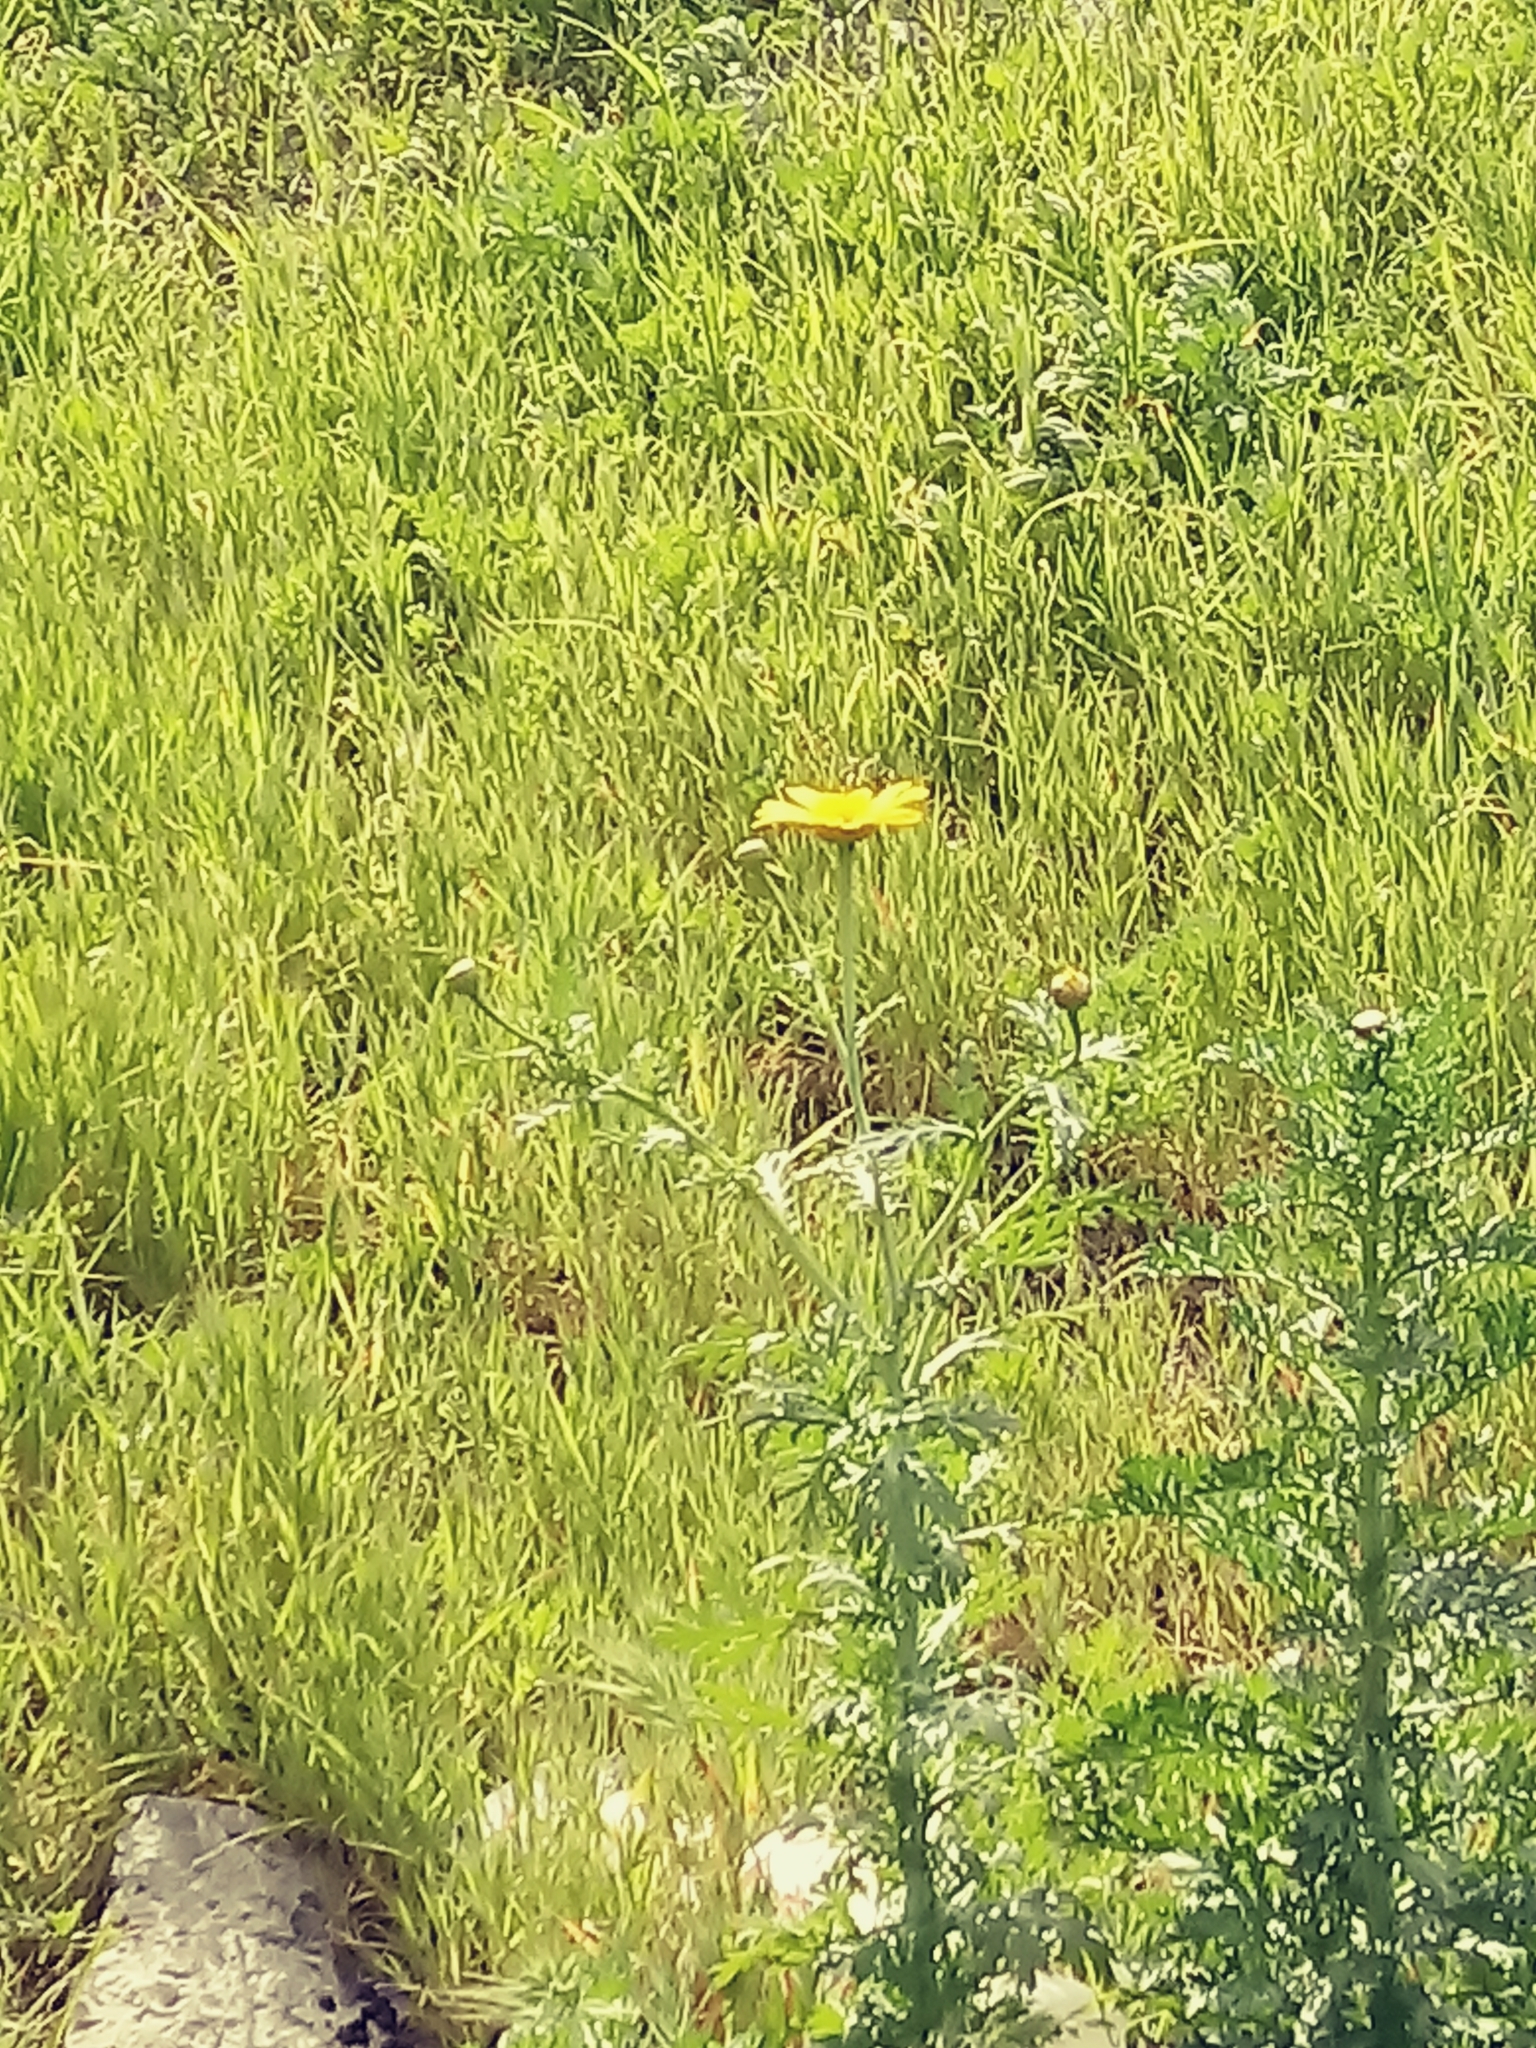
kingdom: Plantae
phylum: Tracheophyta
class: Magnoliopsida
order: Asterales
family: Asteraceae
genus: Glebionis
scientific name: Glebionis coronaria
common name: Crowndaisy
